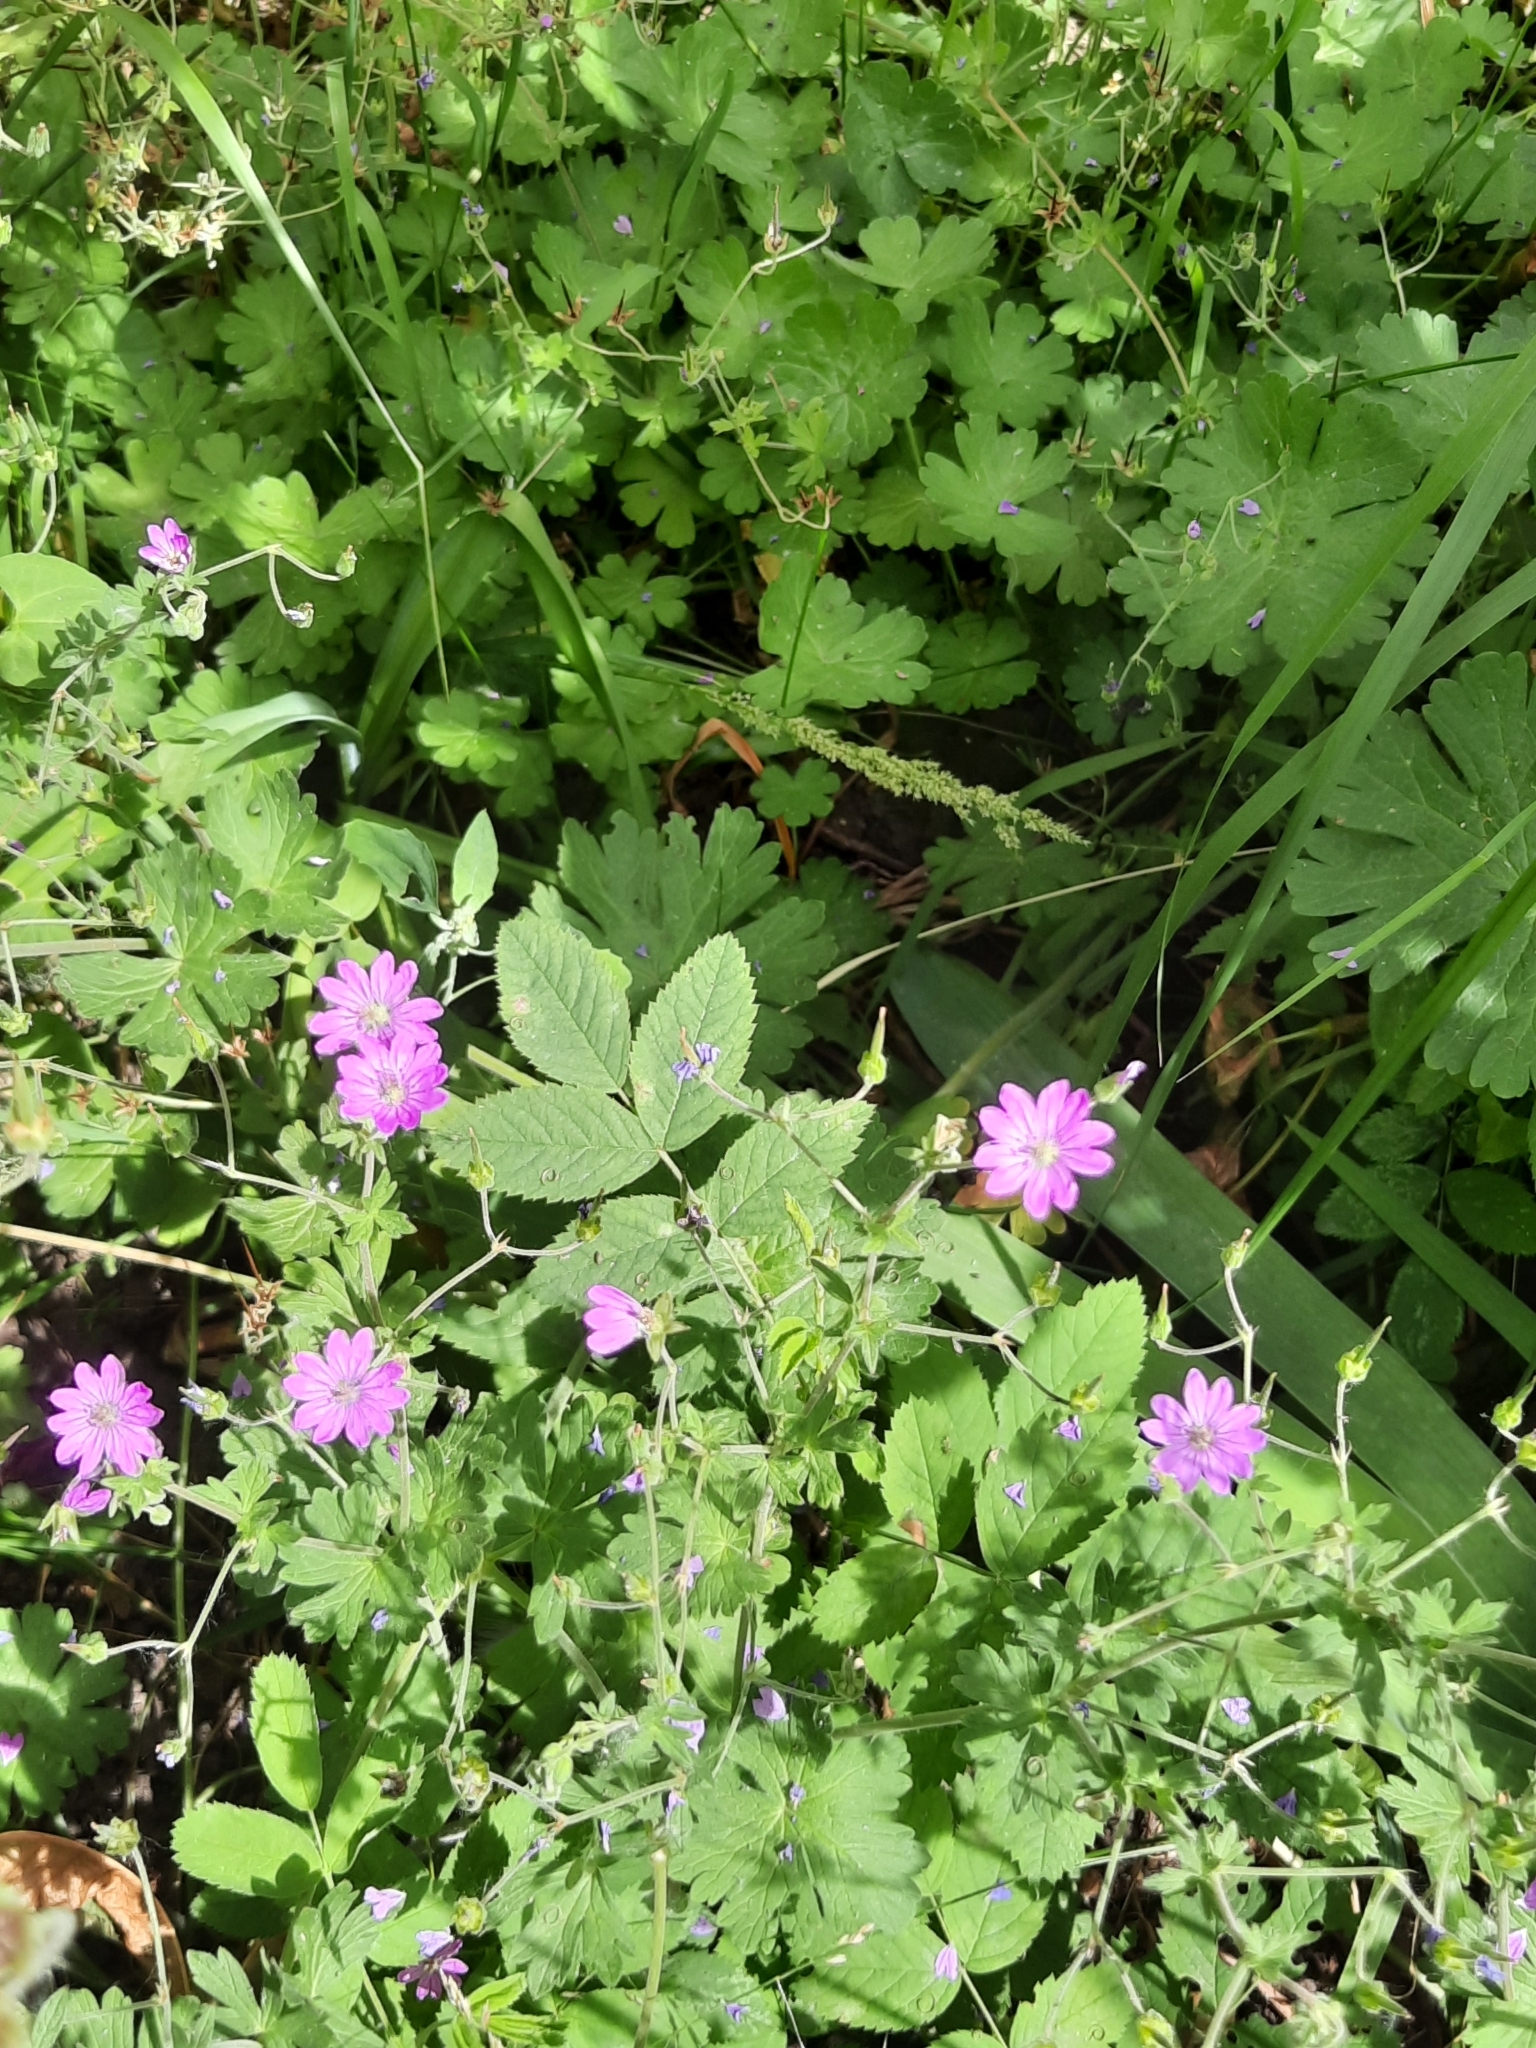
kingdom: Plantae
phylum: Tracheophyta
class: Magnoliopsida
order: Geraniales
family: Geraniaceae
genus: Geranium
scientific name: Geranium pyrenaicum
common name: Hedgerow crane's-bill
